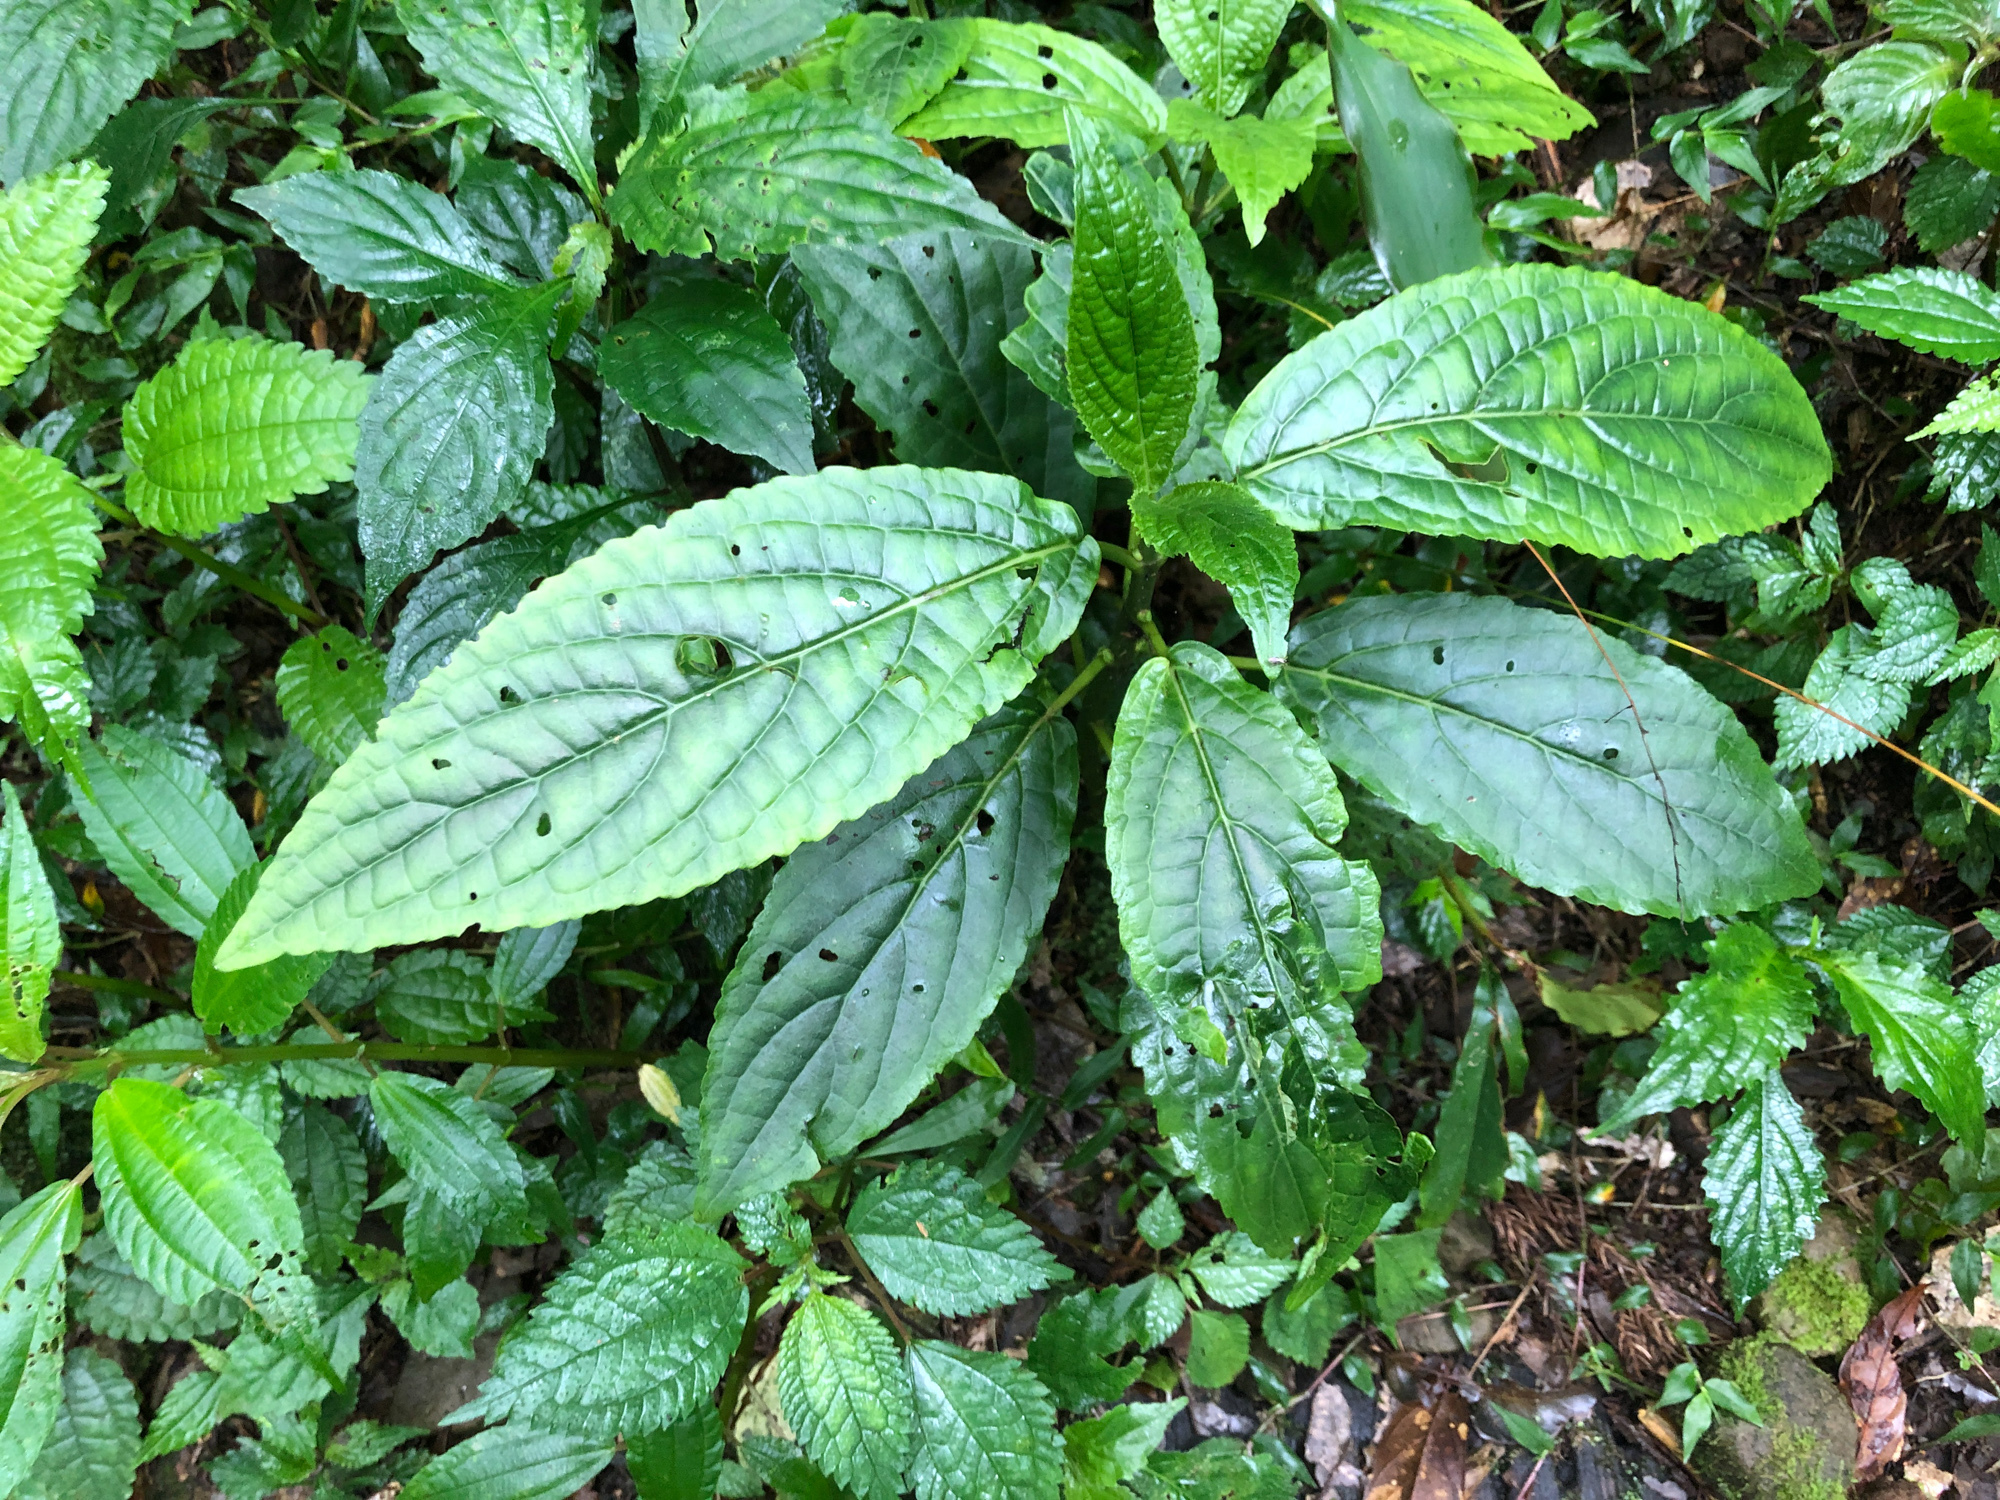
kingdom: Plantae
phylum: Tracheophyta
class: Magnoliopsida
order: Lamiales
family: Lamiaceae
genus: Paraphlomis
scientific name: Paraphlomis javanica
